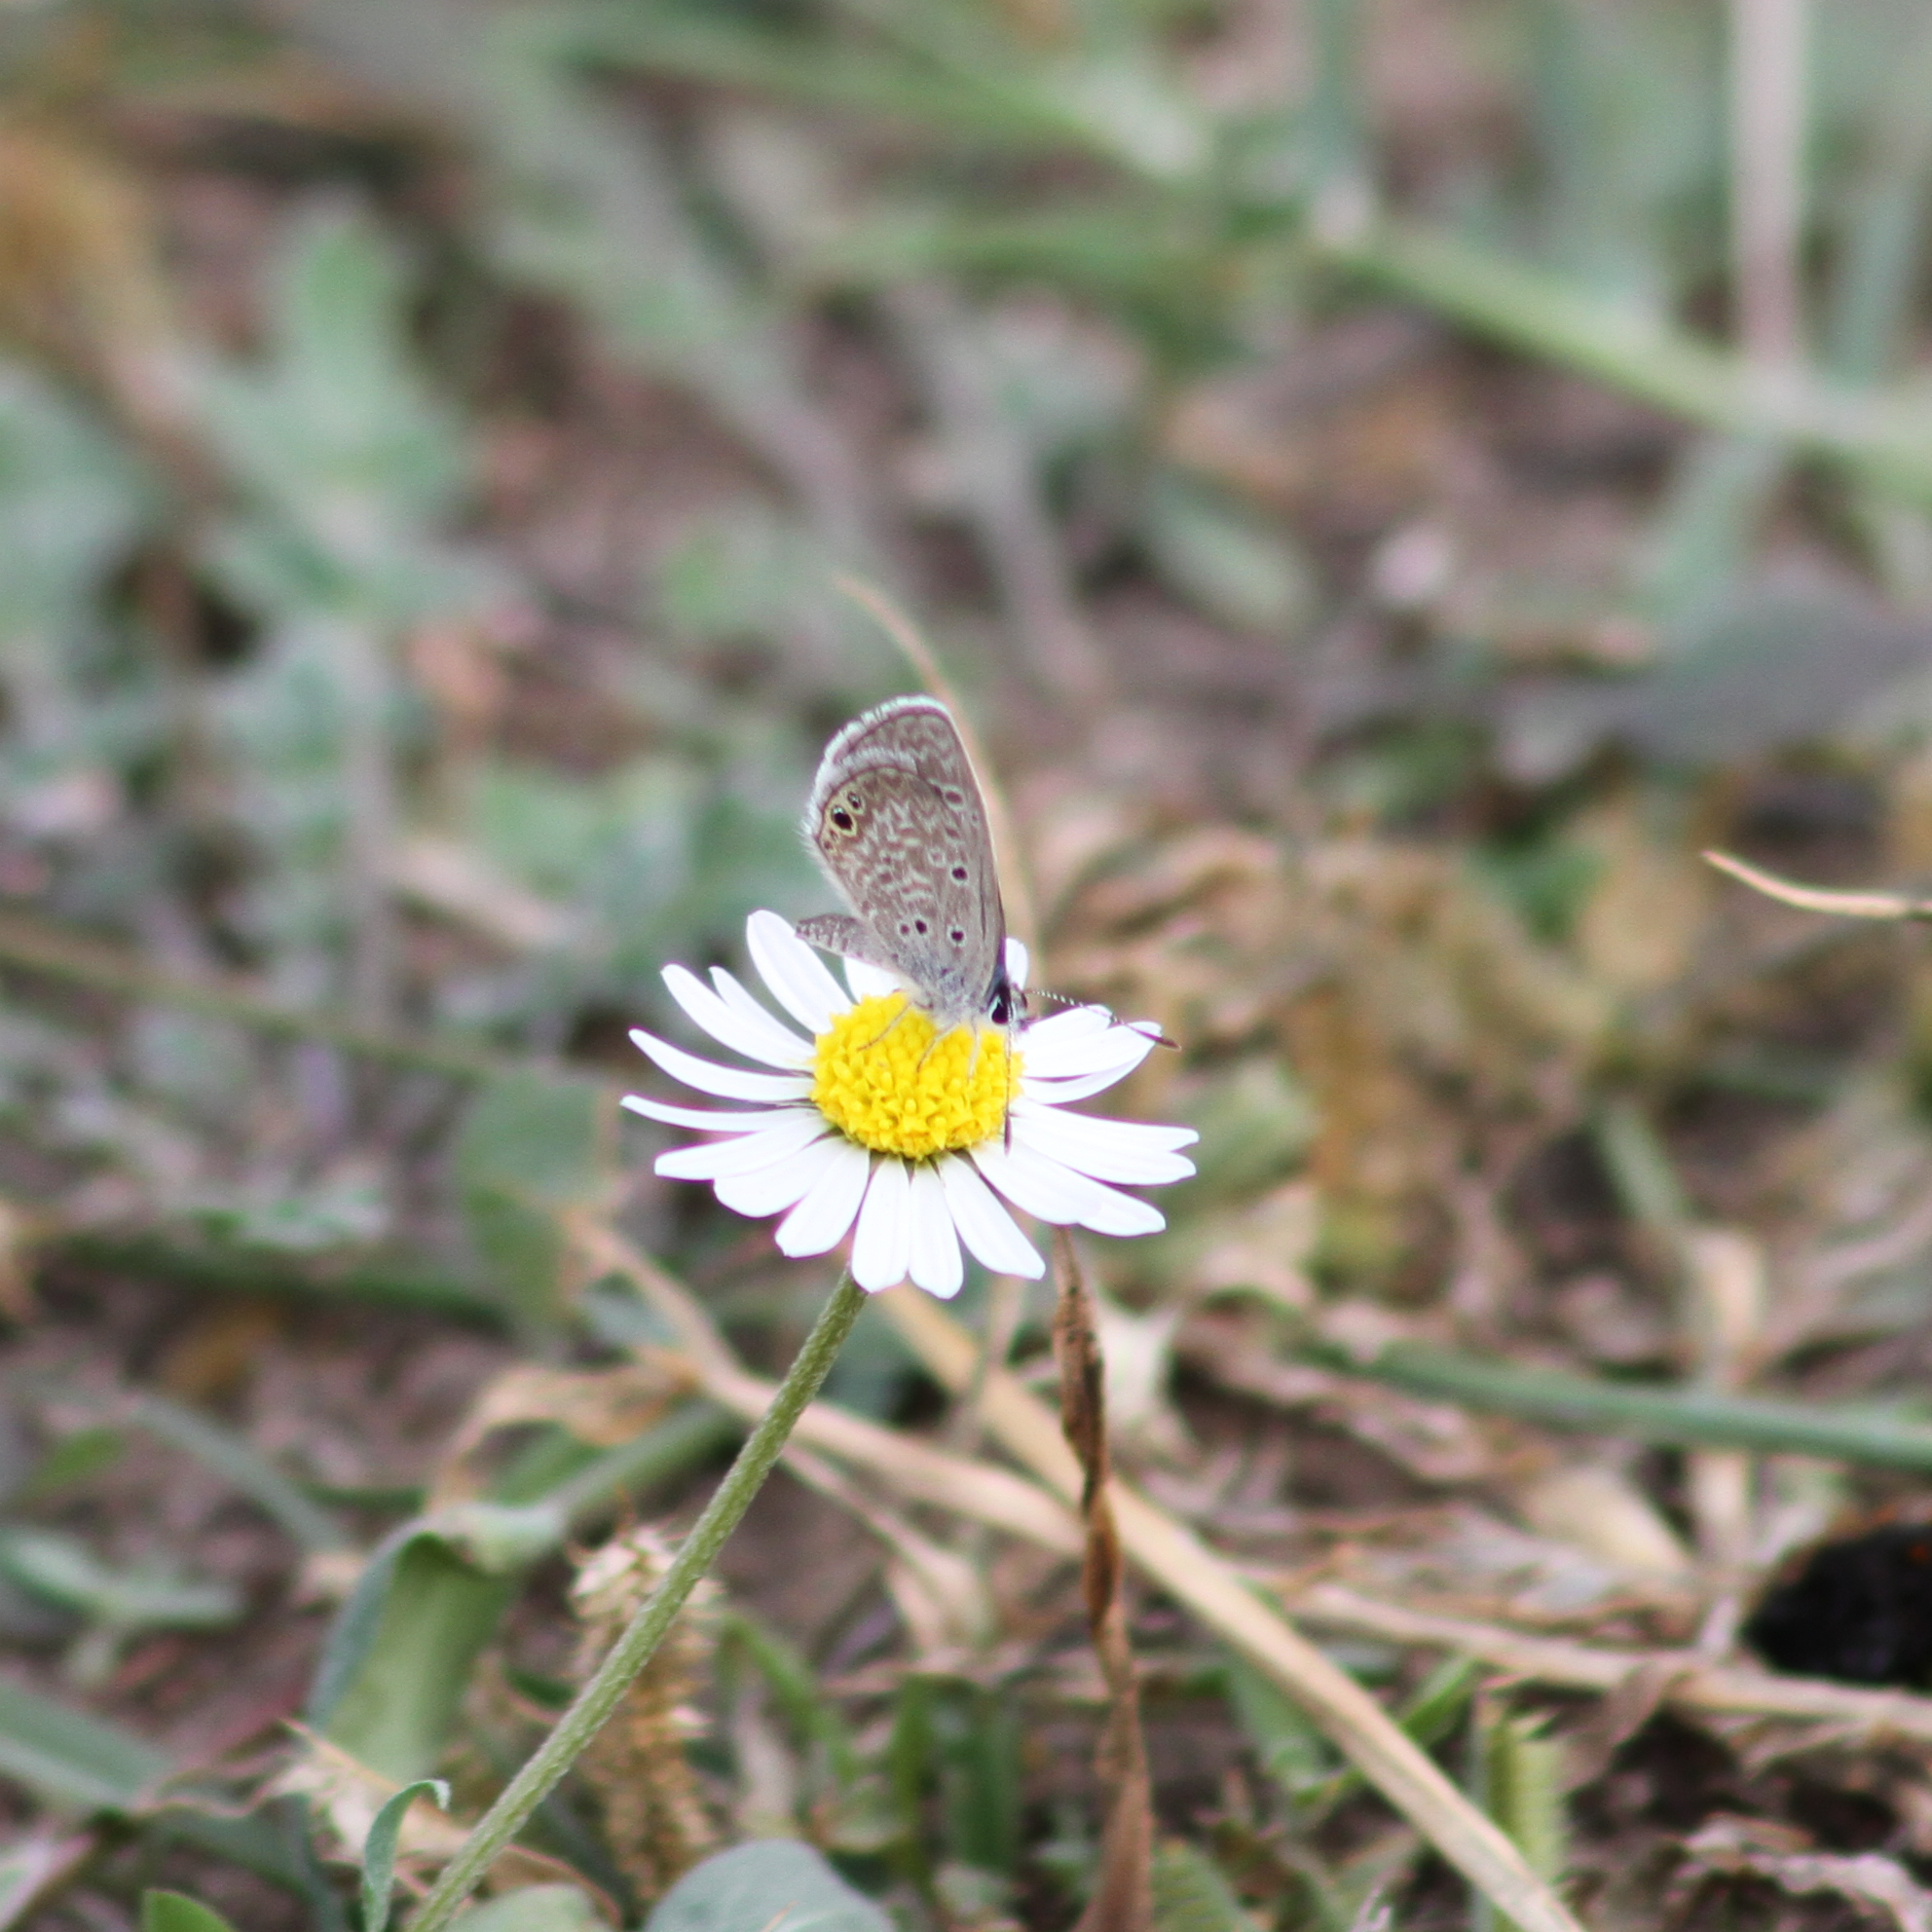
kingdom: Animalia
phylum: Arthropoda
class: Insecta
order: Lepidoptera
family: Lycaenidae
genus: Hemiargus
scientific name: Hemiargus ceraunus
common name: Ceraunus blue
